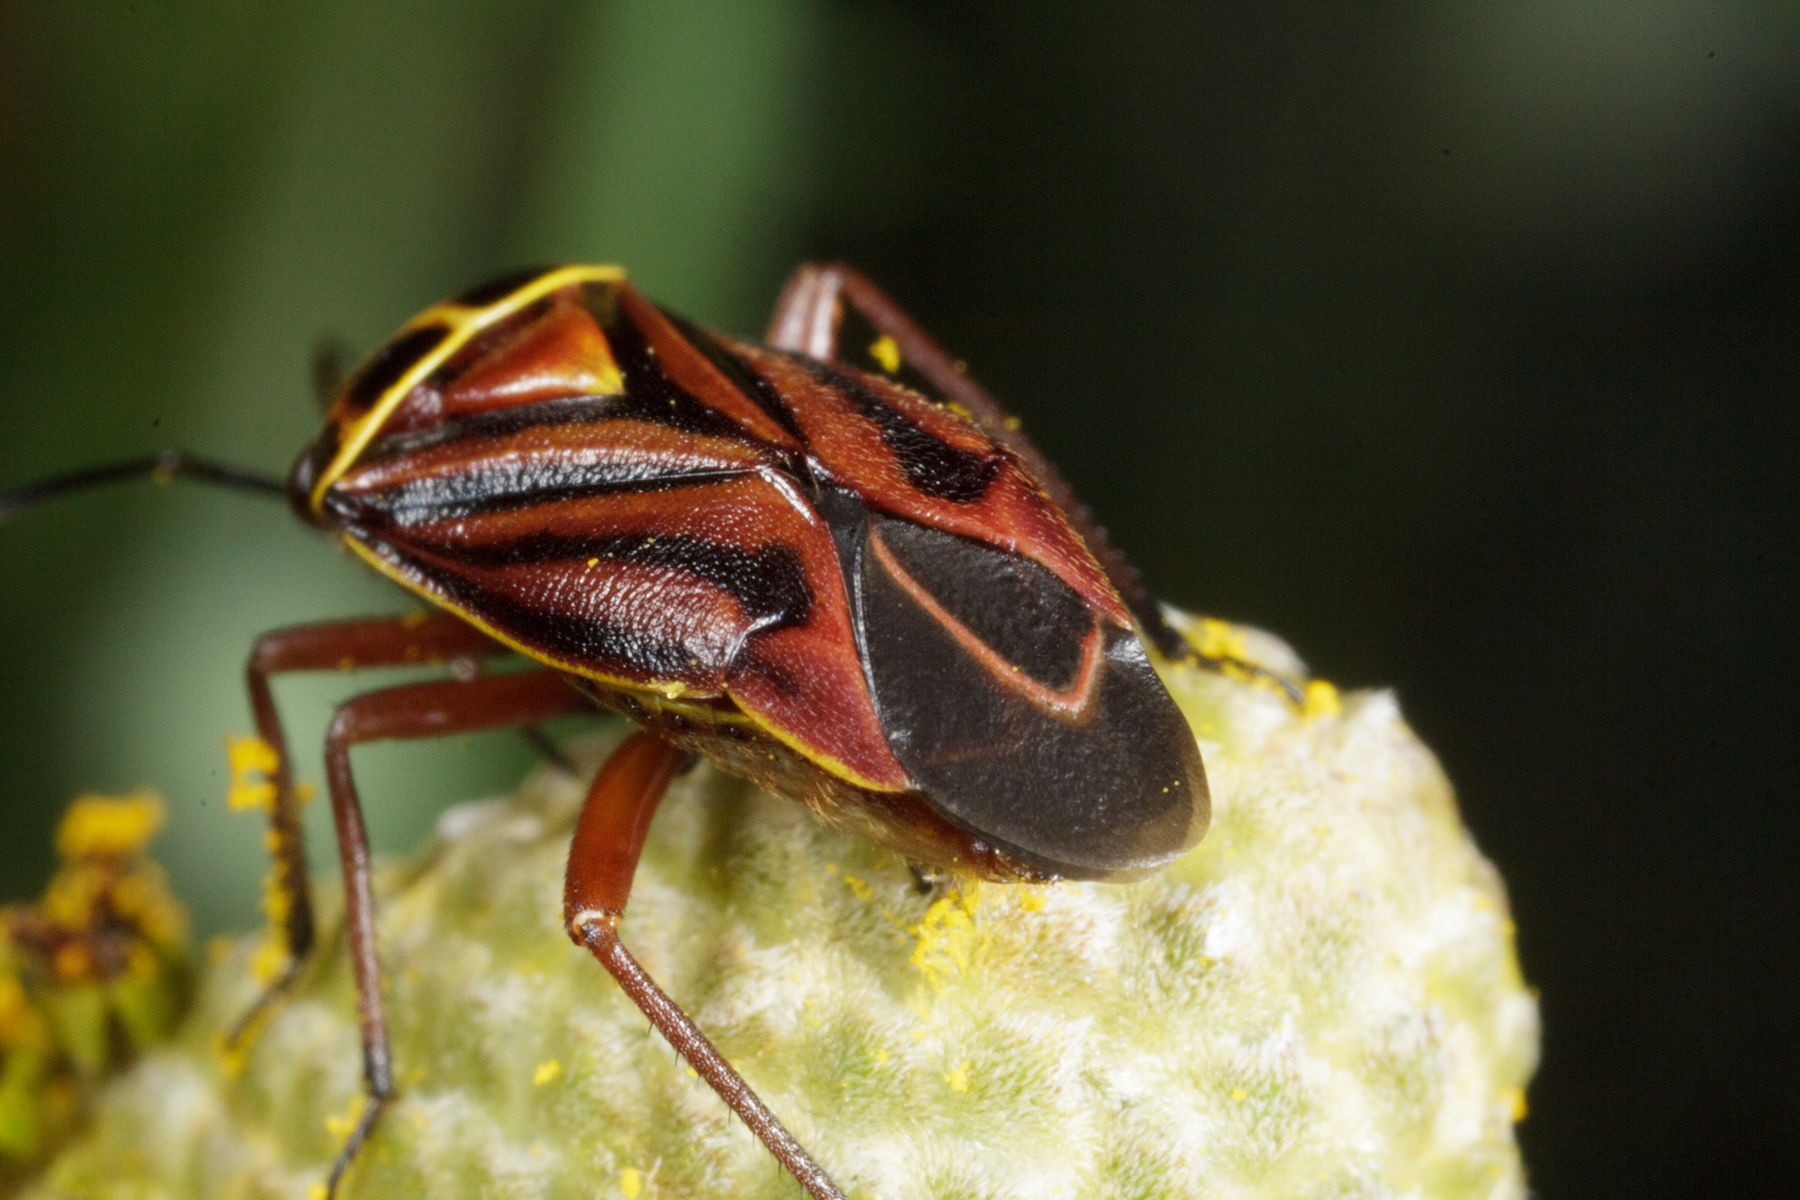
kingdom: Animalia
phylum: Arthropoda
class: Insecta
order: Hemiptera
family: Miridae
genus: Calocoris
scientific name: Calocoris barberi
